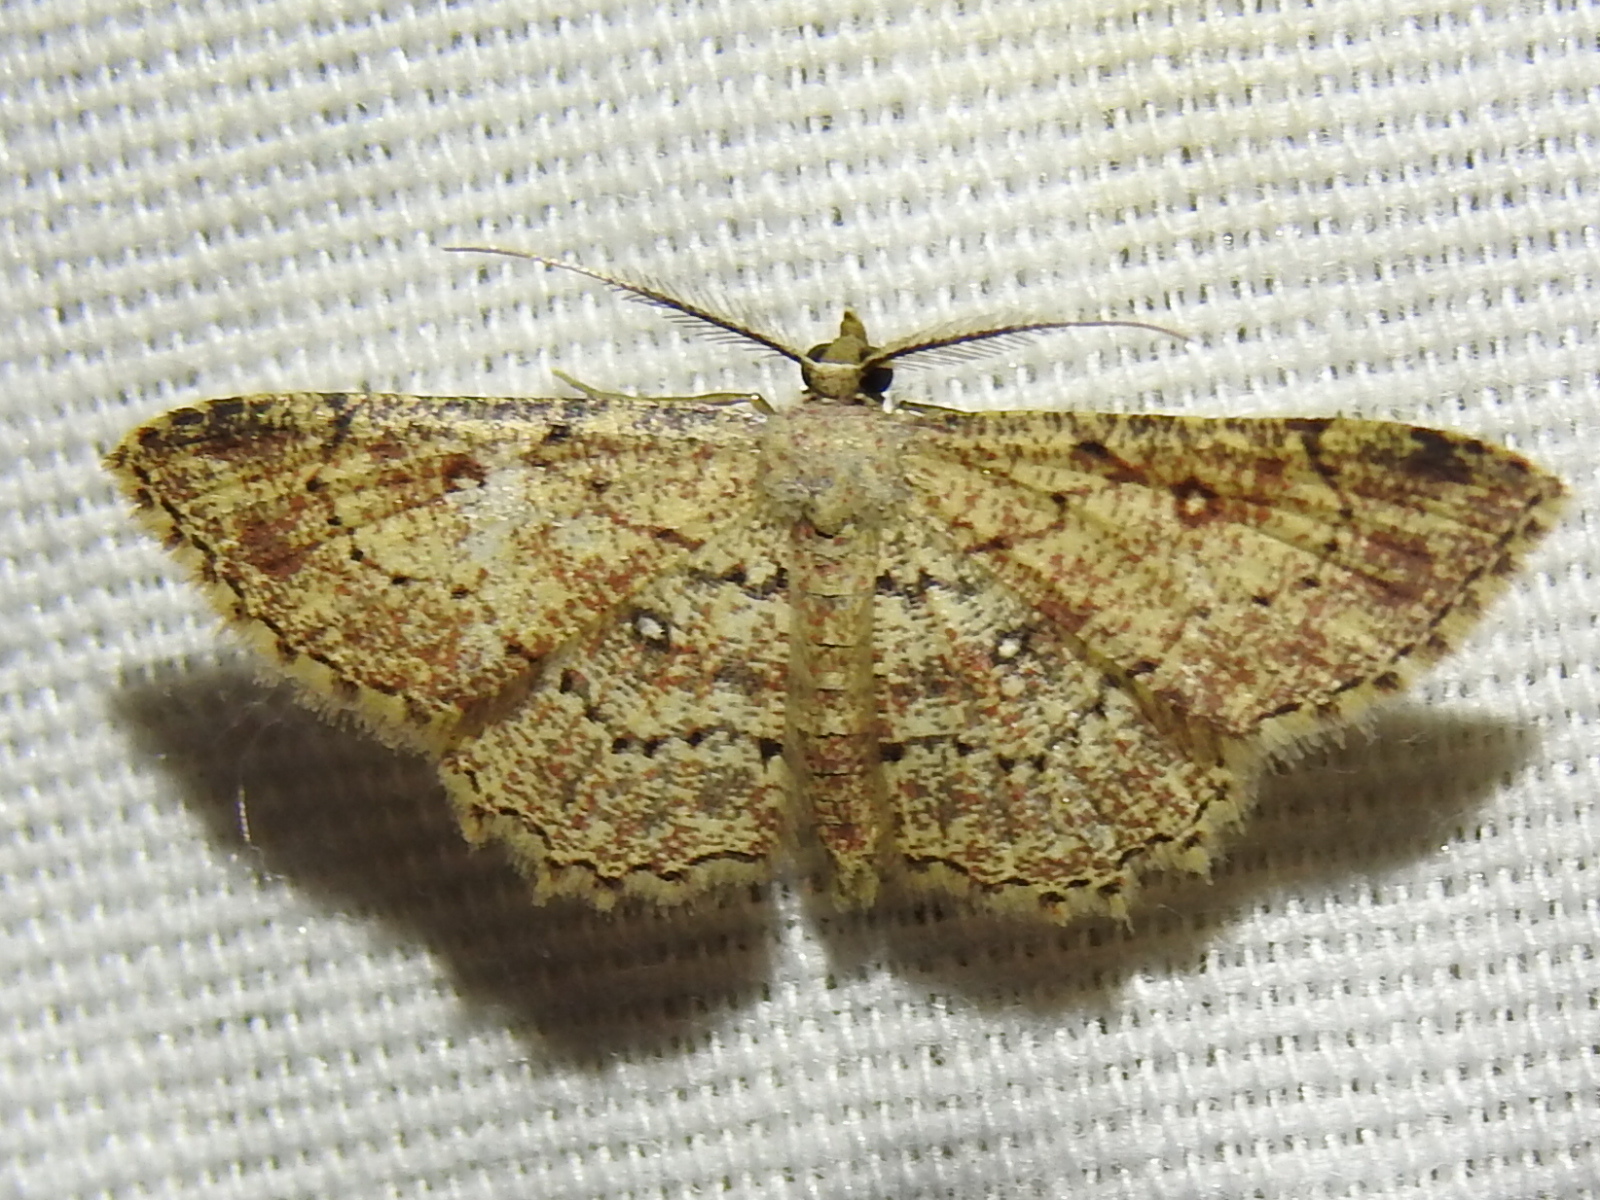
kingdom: Animalia
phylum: Arthropoda
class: Insecta
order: Lepidoptera
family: Geometridae
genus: Cyclophora
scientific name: Cyclophora nanaria
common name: Cankerworm
